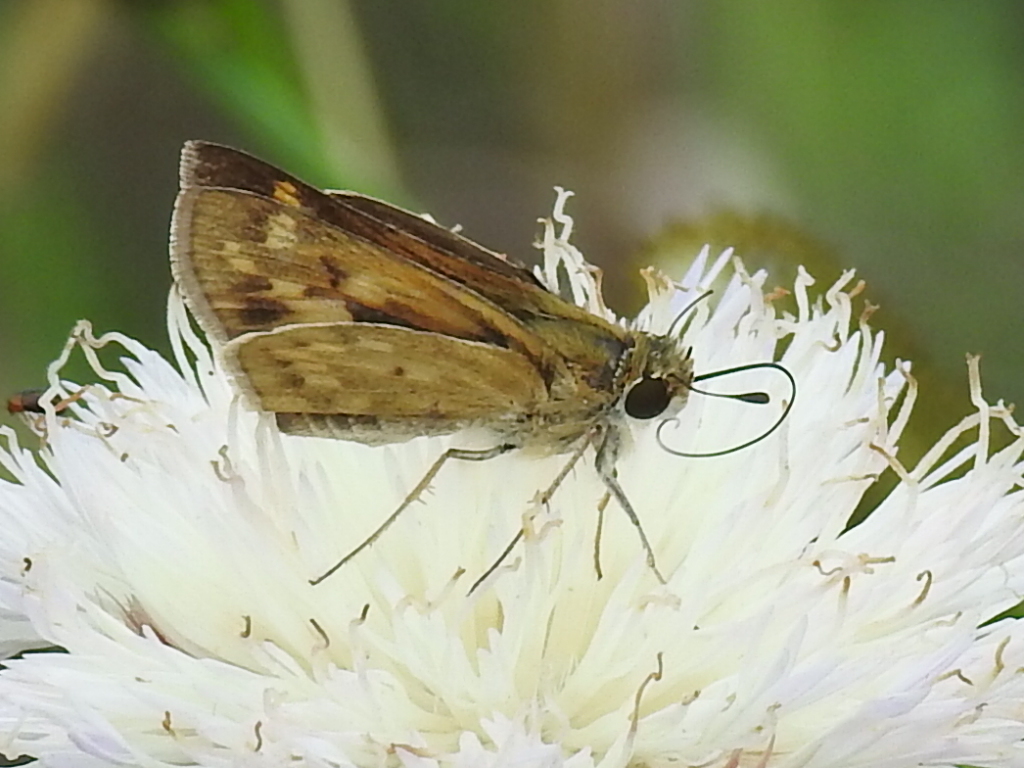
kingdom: Animalia
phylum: Arthropoda
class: Insecta
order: Lepidoptera
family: Hesperiidae
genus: Hylephila
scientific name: Hylephila phyleus
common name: Fiery skipper
